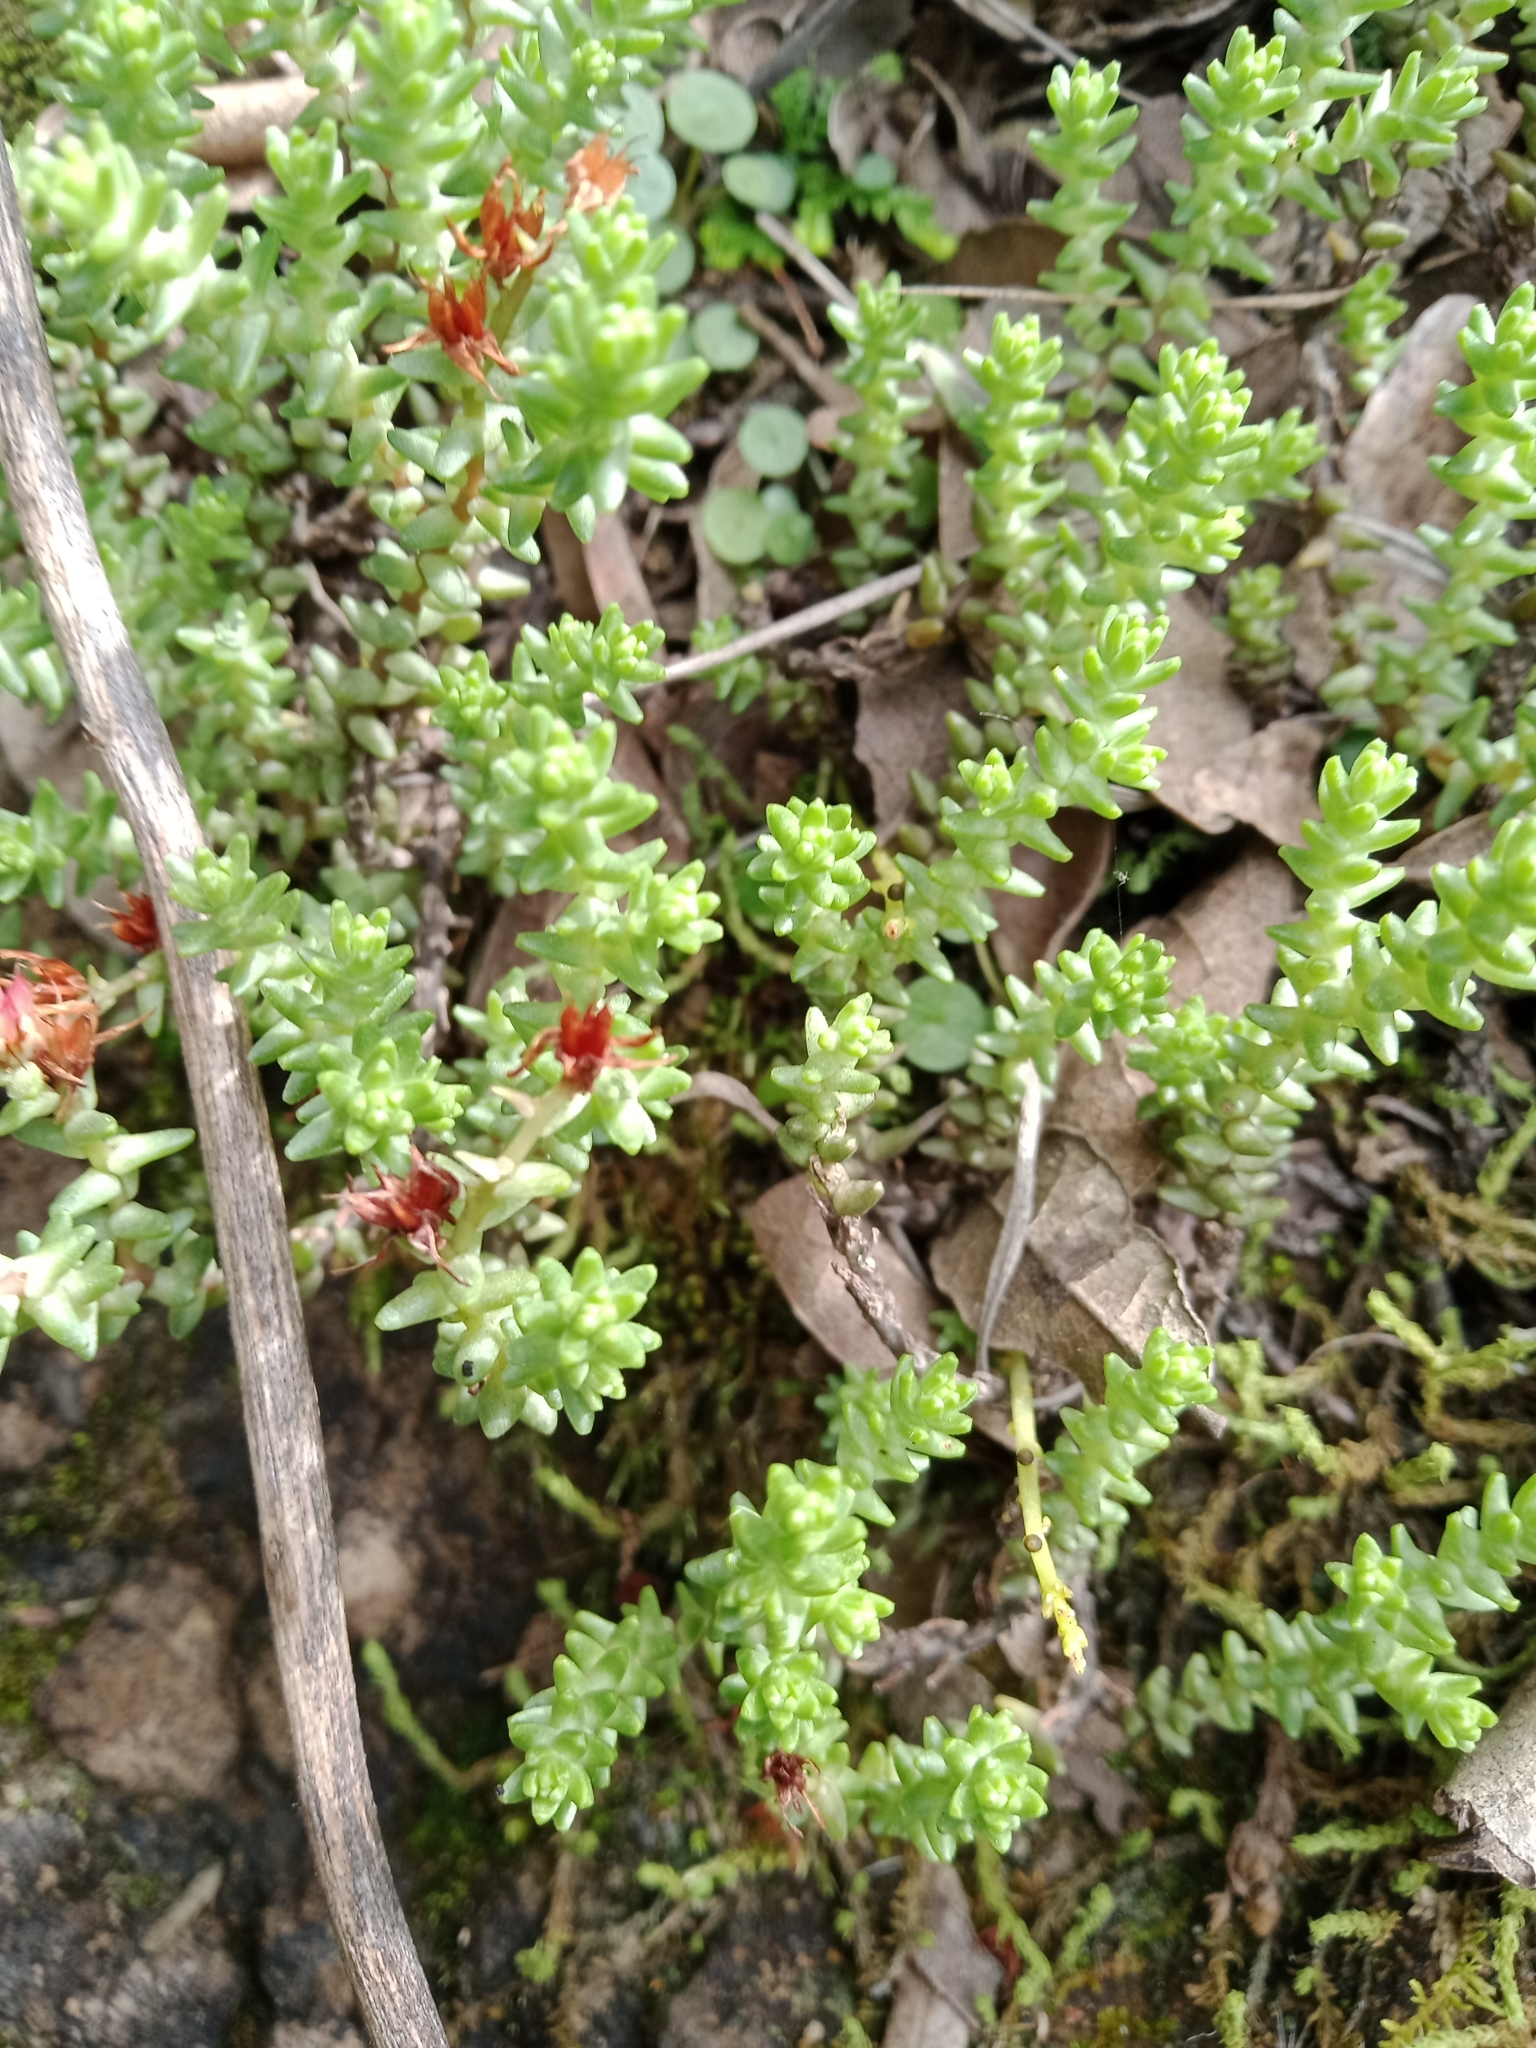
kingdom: Plantae
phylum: Tracheophyta
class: Magnoliopsida
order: Saxifragales
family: Crassulaceae
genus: Sedum
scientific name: Sedum moranense
